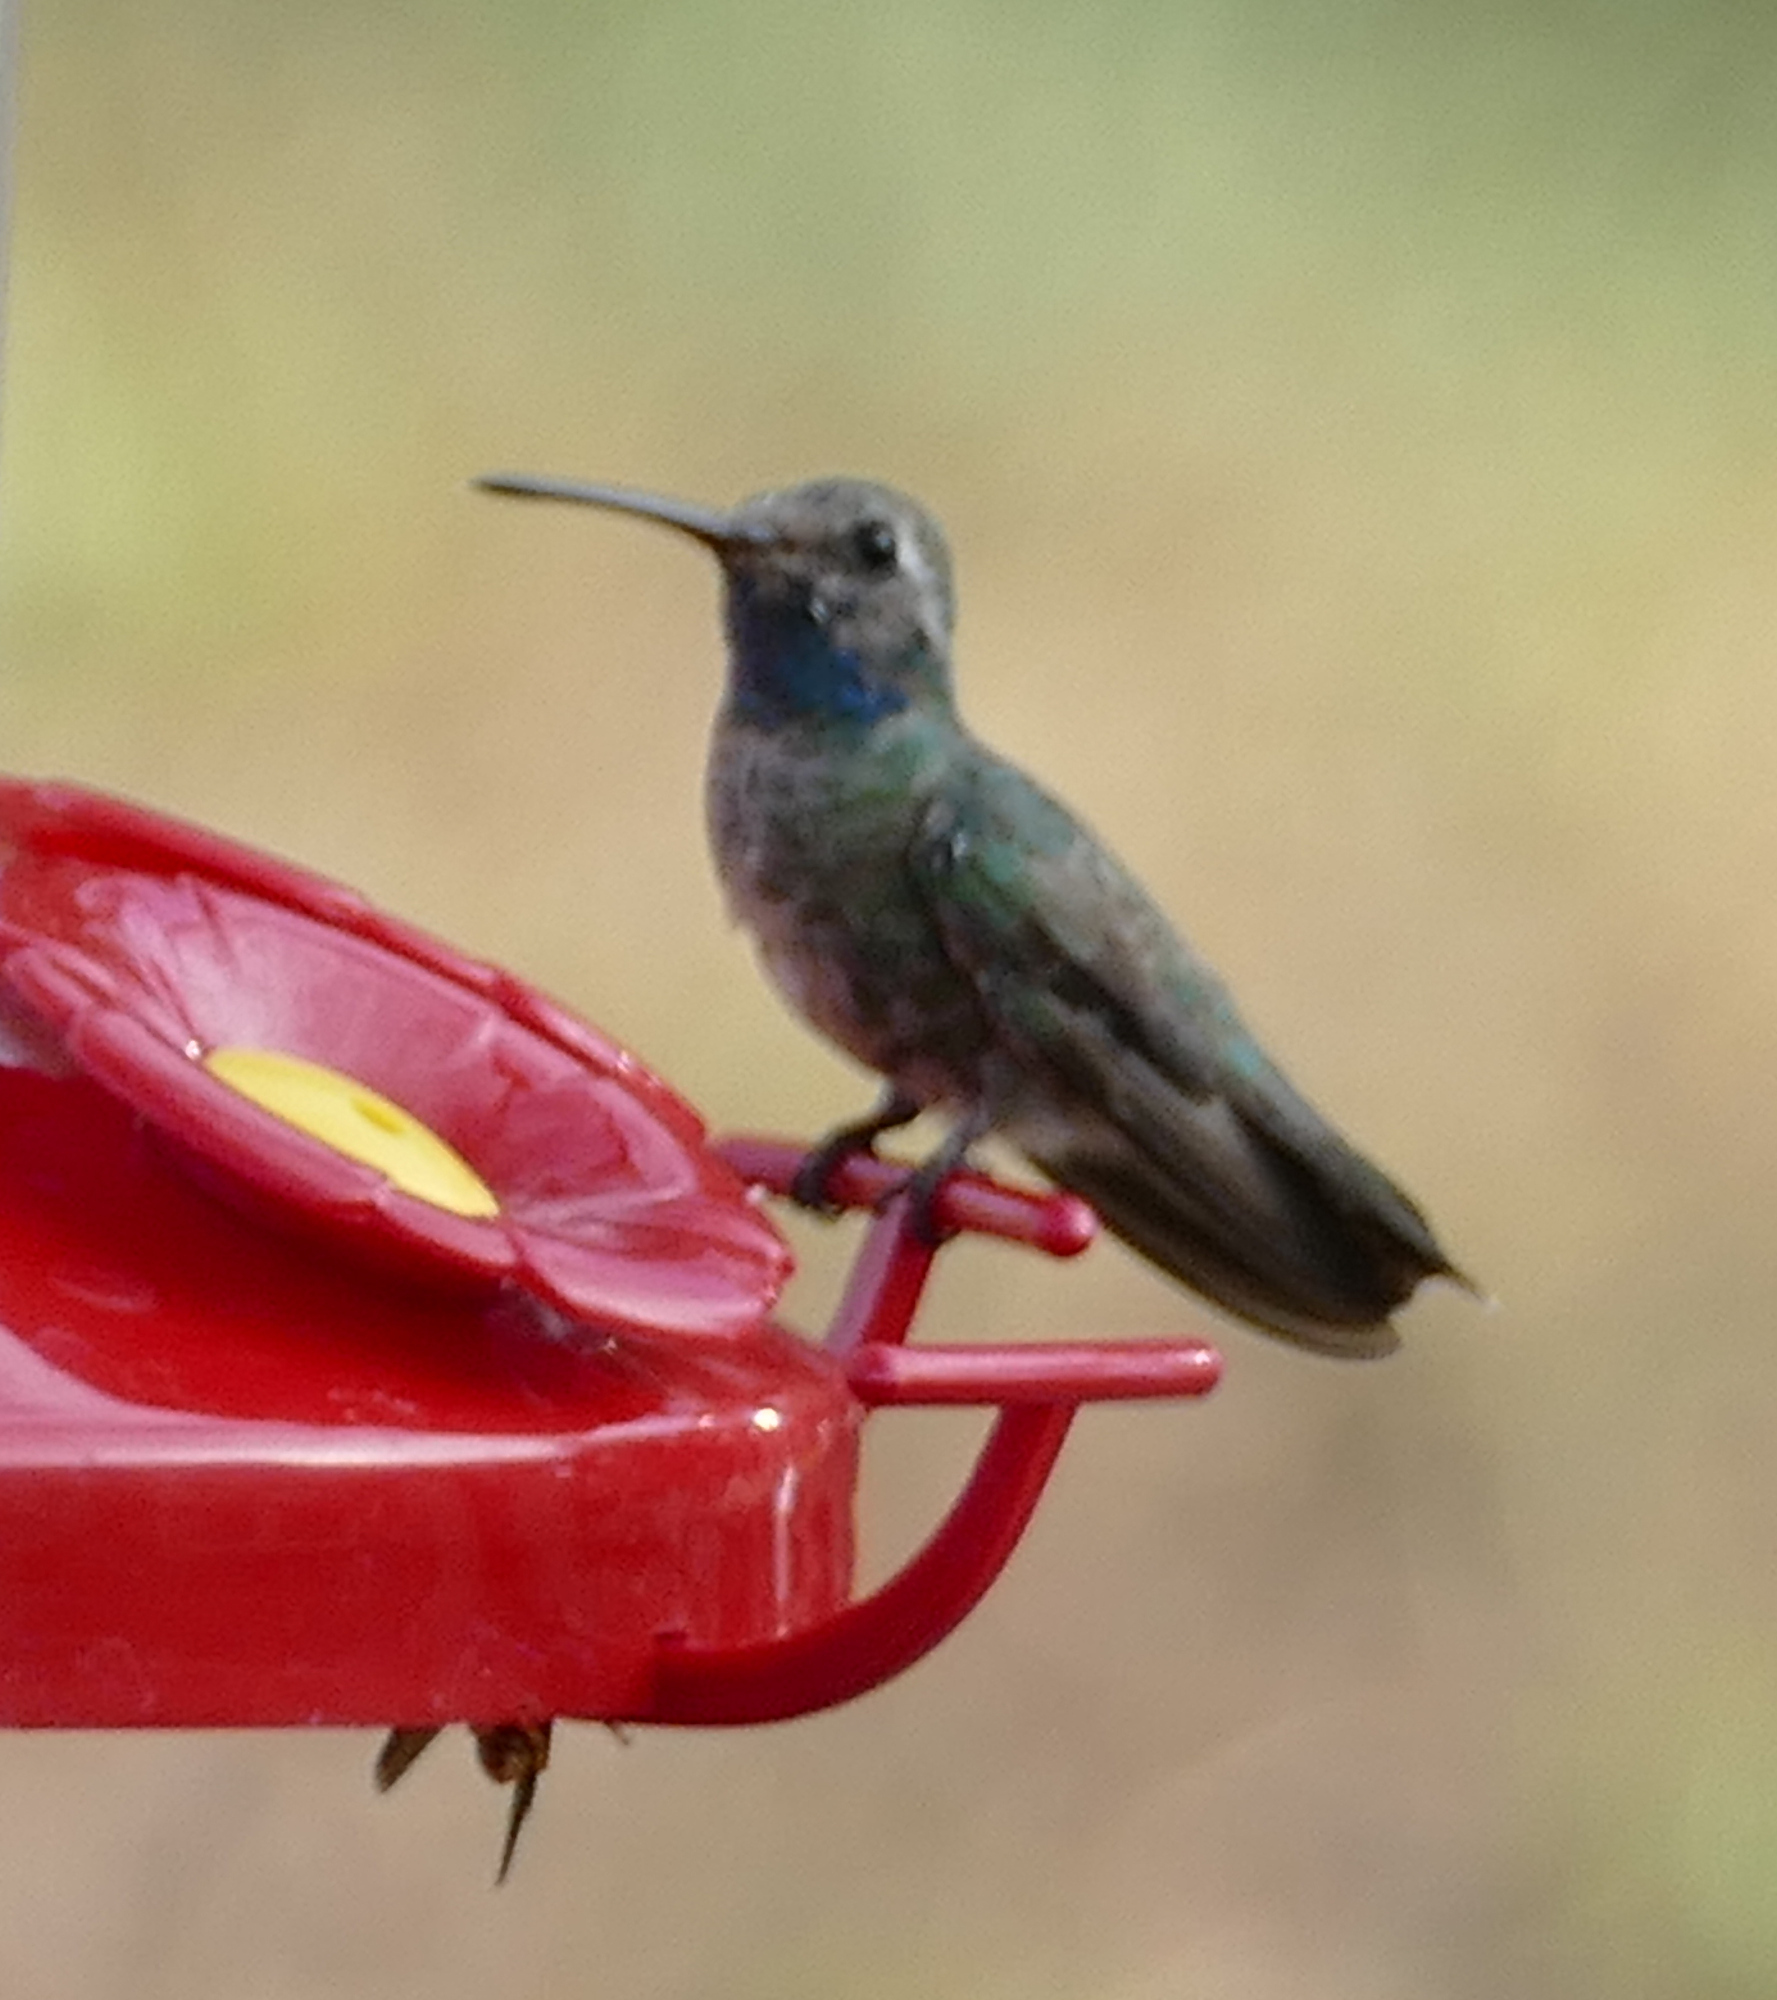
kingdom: Animalia
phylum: Chordata
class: Aves
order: Apodiformes
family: Trochilidae
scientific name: Trochilidae
